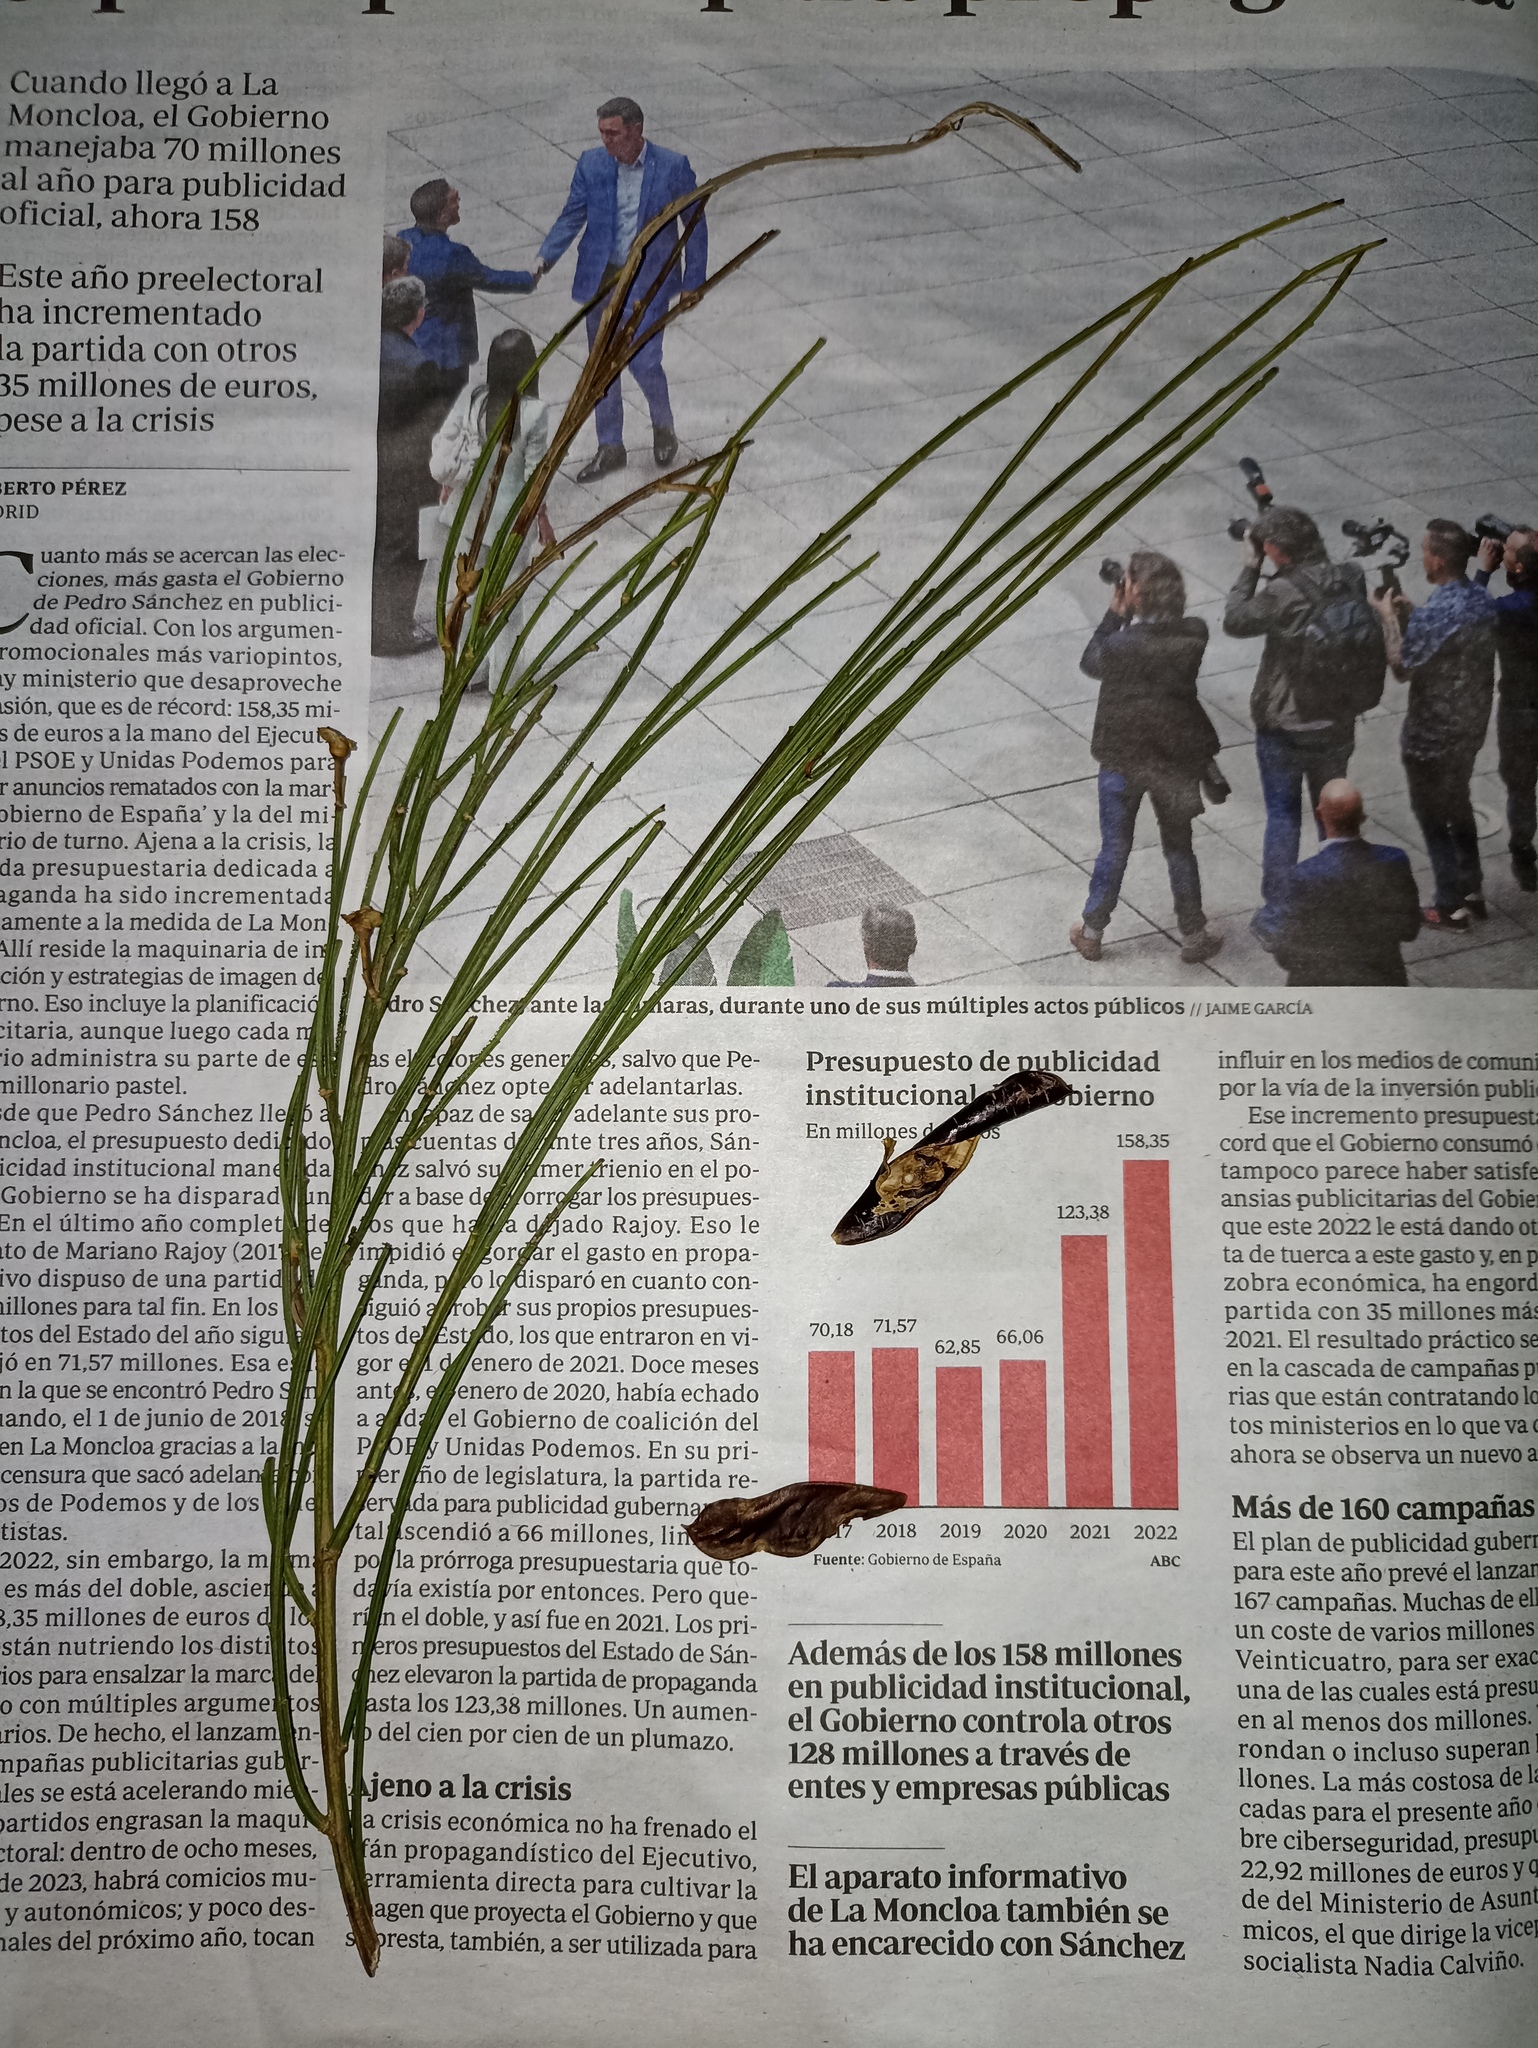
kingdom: Plantae
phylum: Tracheophyta
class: Magnoliopsida
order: Fabales
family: Fabaceae
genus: Cytisus
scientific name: Cytisus scoparius
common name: Scotch broom
